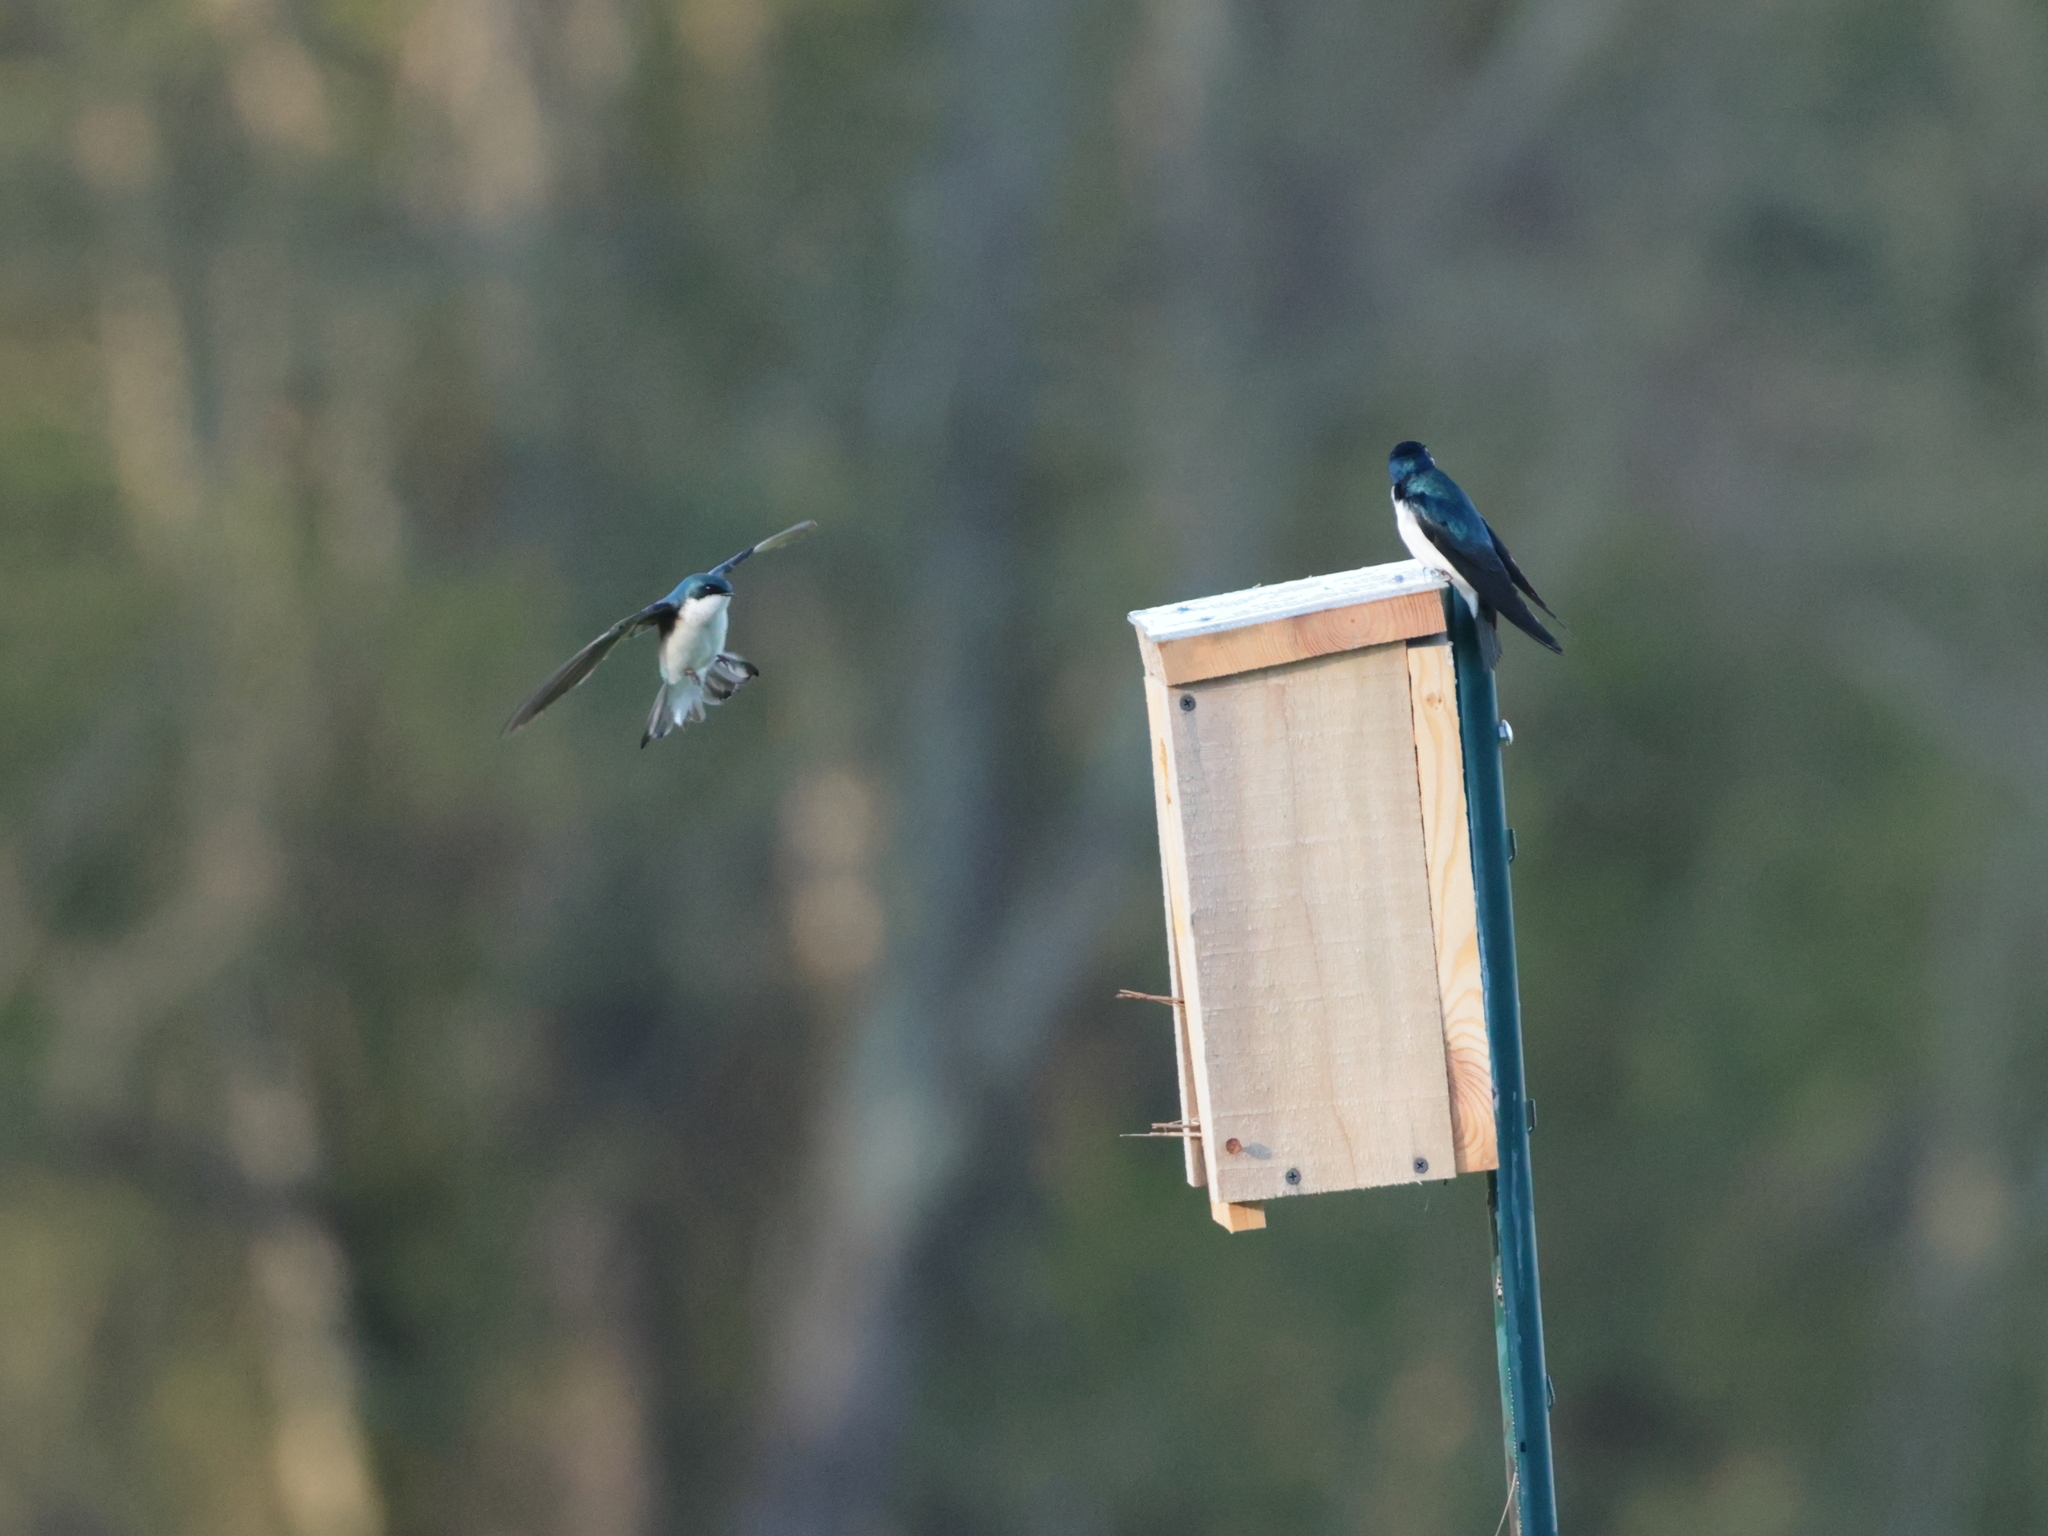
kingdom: Animalia
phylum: Chordata
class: Aves
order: Passeriformes
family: Hirundinidae
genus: Tachycineta
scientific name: Tachycineta bicolor
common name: Tree swallow
